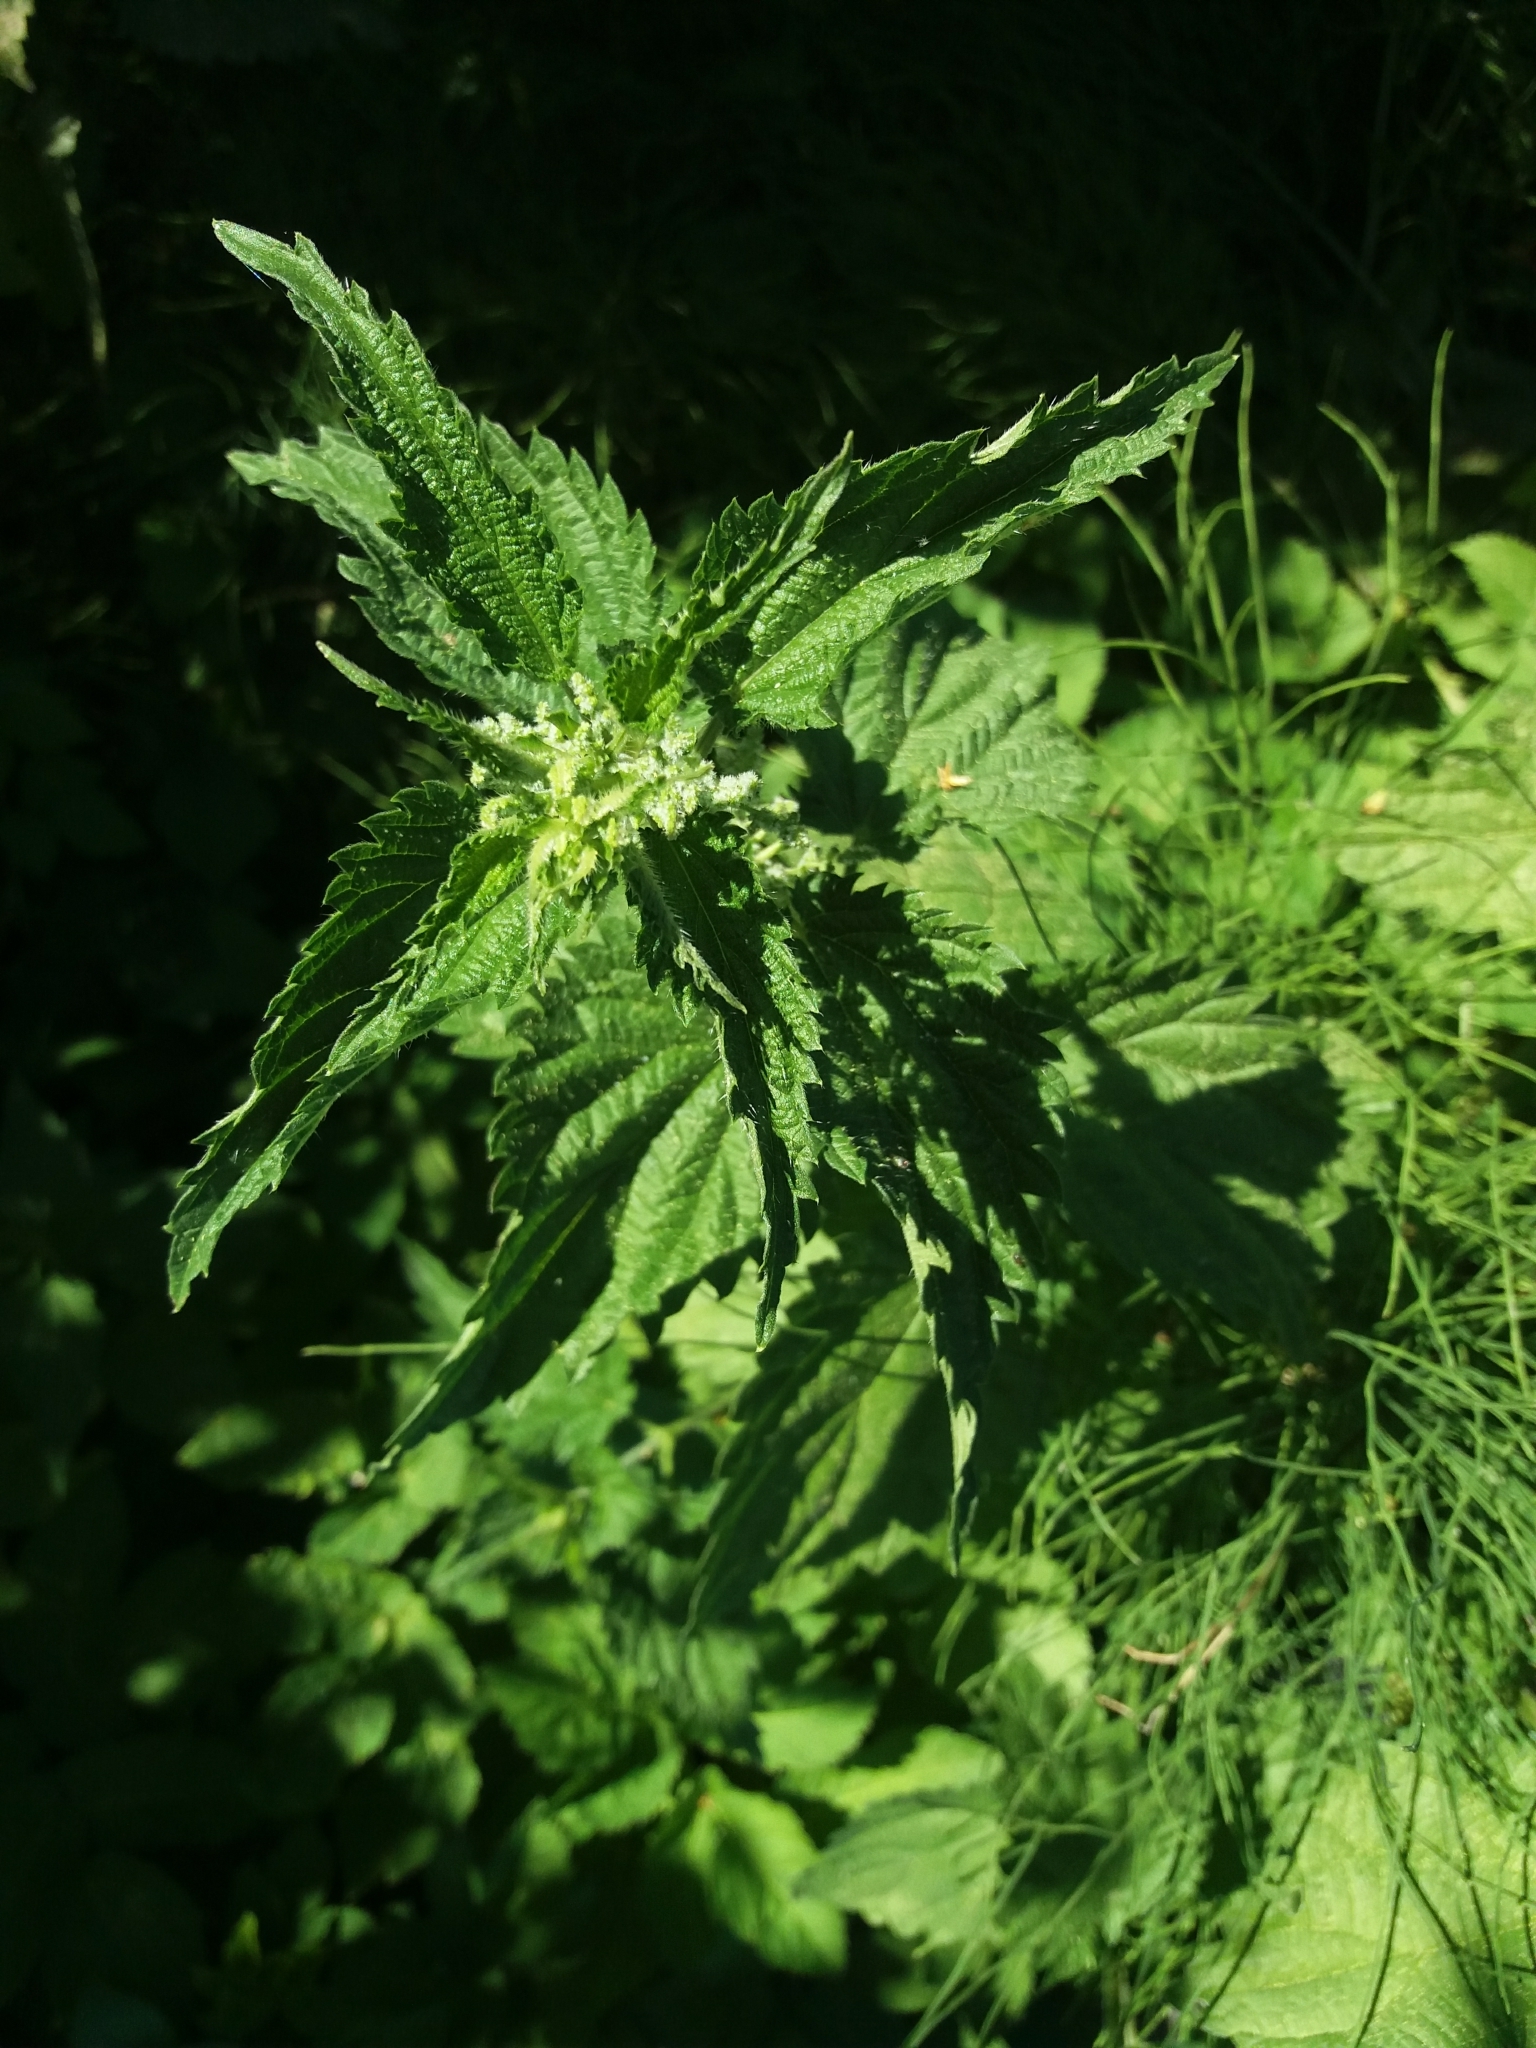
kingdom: Plantae
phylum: Tracheophyta
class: Magnoliopsida
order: Rosales
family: Urticaceae
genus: Urtica
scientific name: Urtica dioica
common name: Common nettle
